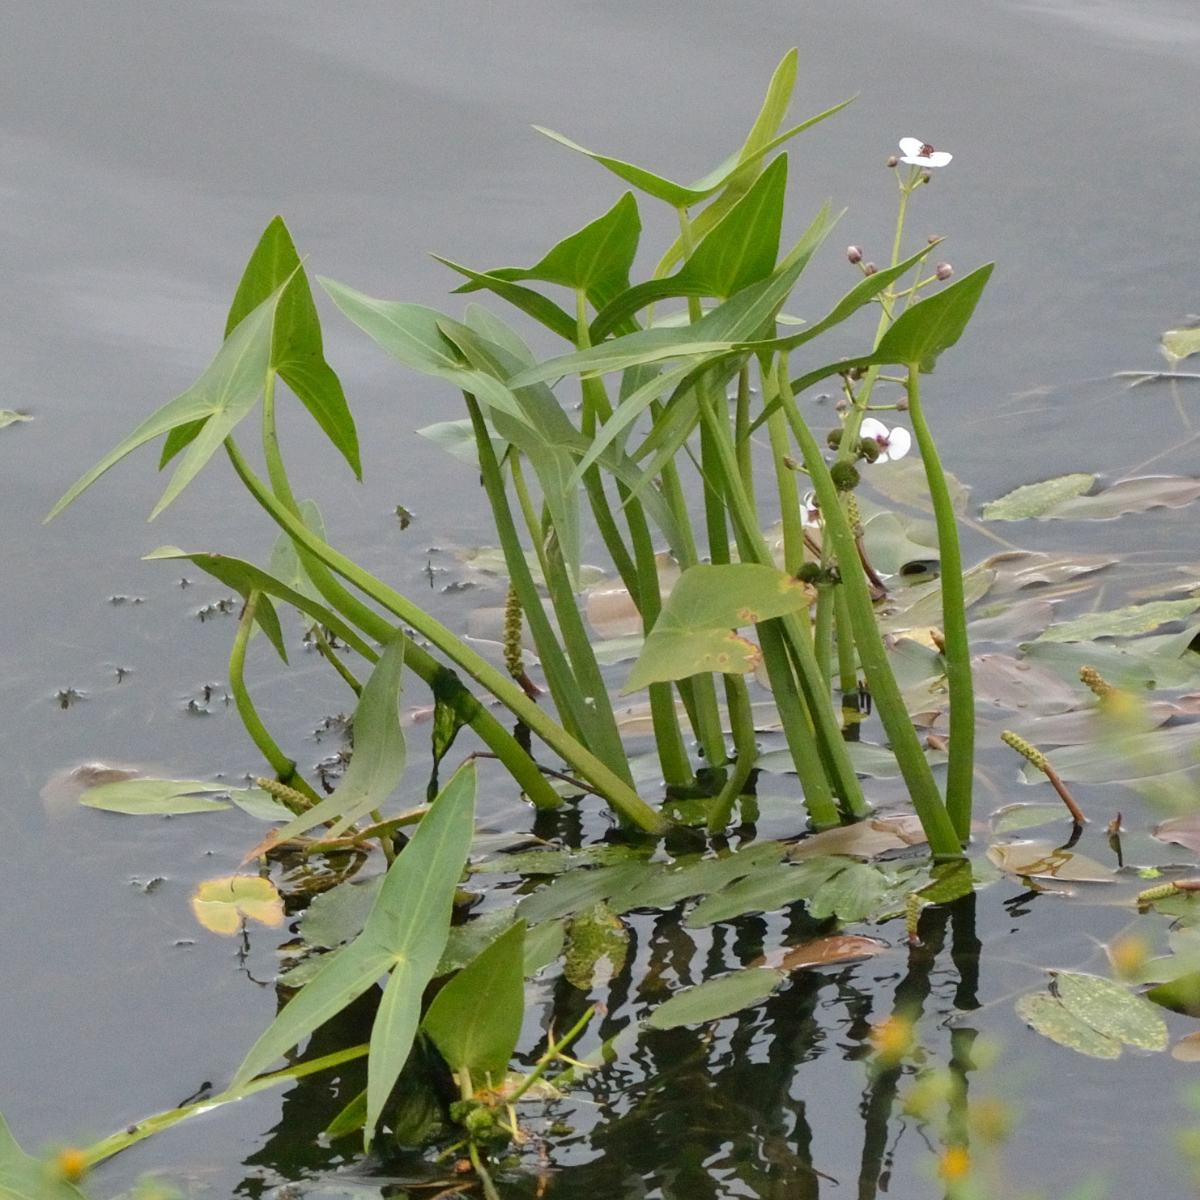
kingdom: Plantae
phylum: Tracheophyta
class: Liliopsida
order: Alismatales
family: Alismataceae
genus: Sagittaria
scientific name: Sagittaria sagittifolia
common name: Arrowhead
